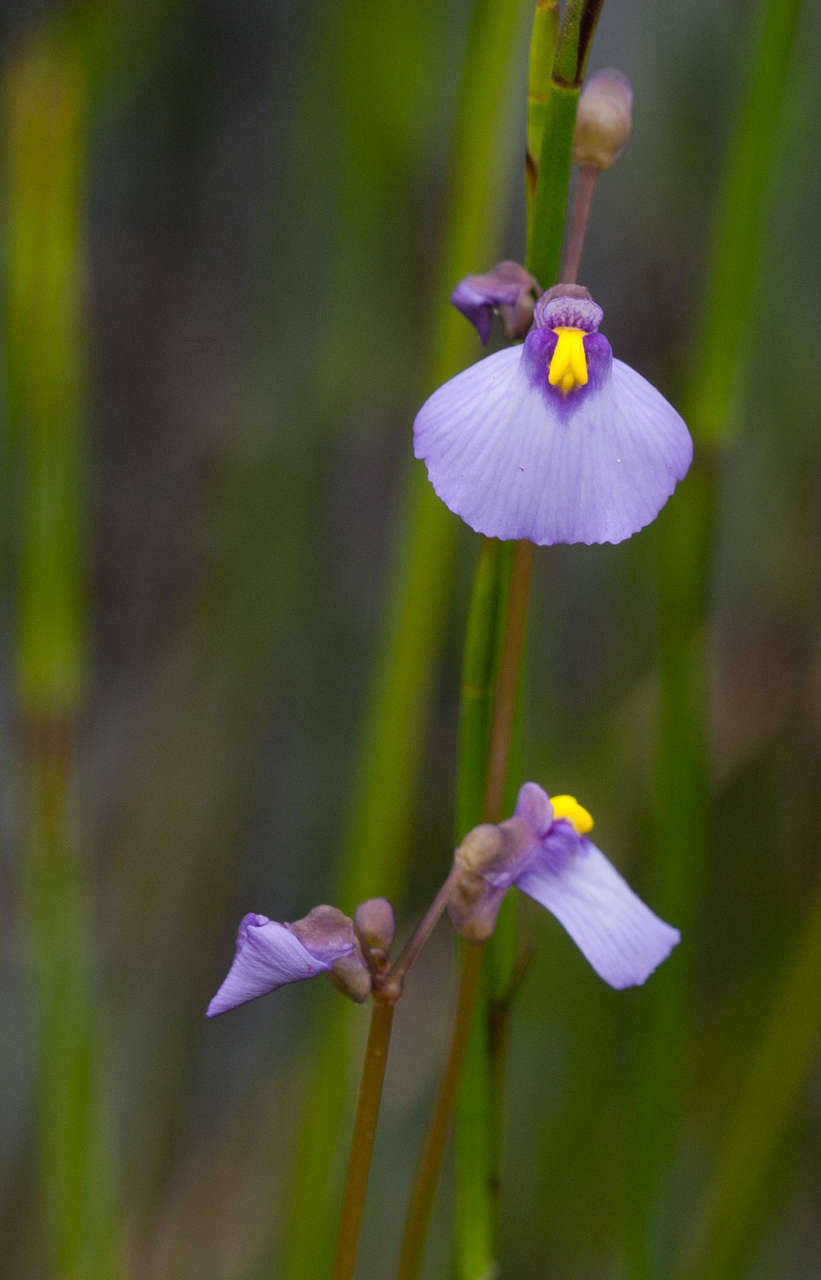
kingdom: Plantae
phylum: Tracheophyta
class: Magnoliopsida
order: Lamiales
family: Lentibulariaceae
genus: Utricularia
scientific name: Utricularia barkeri
